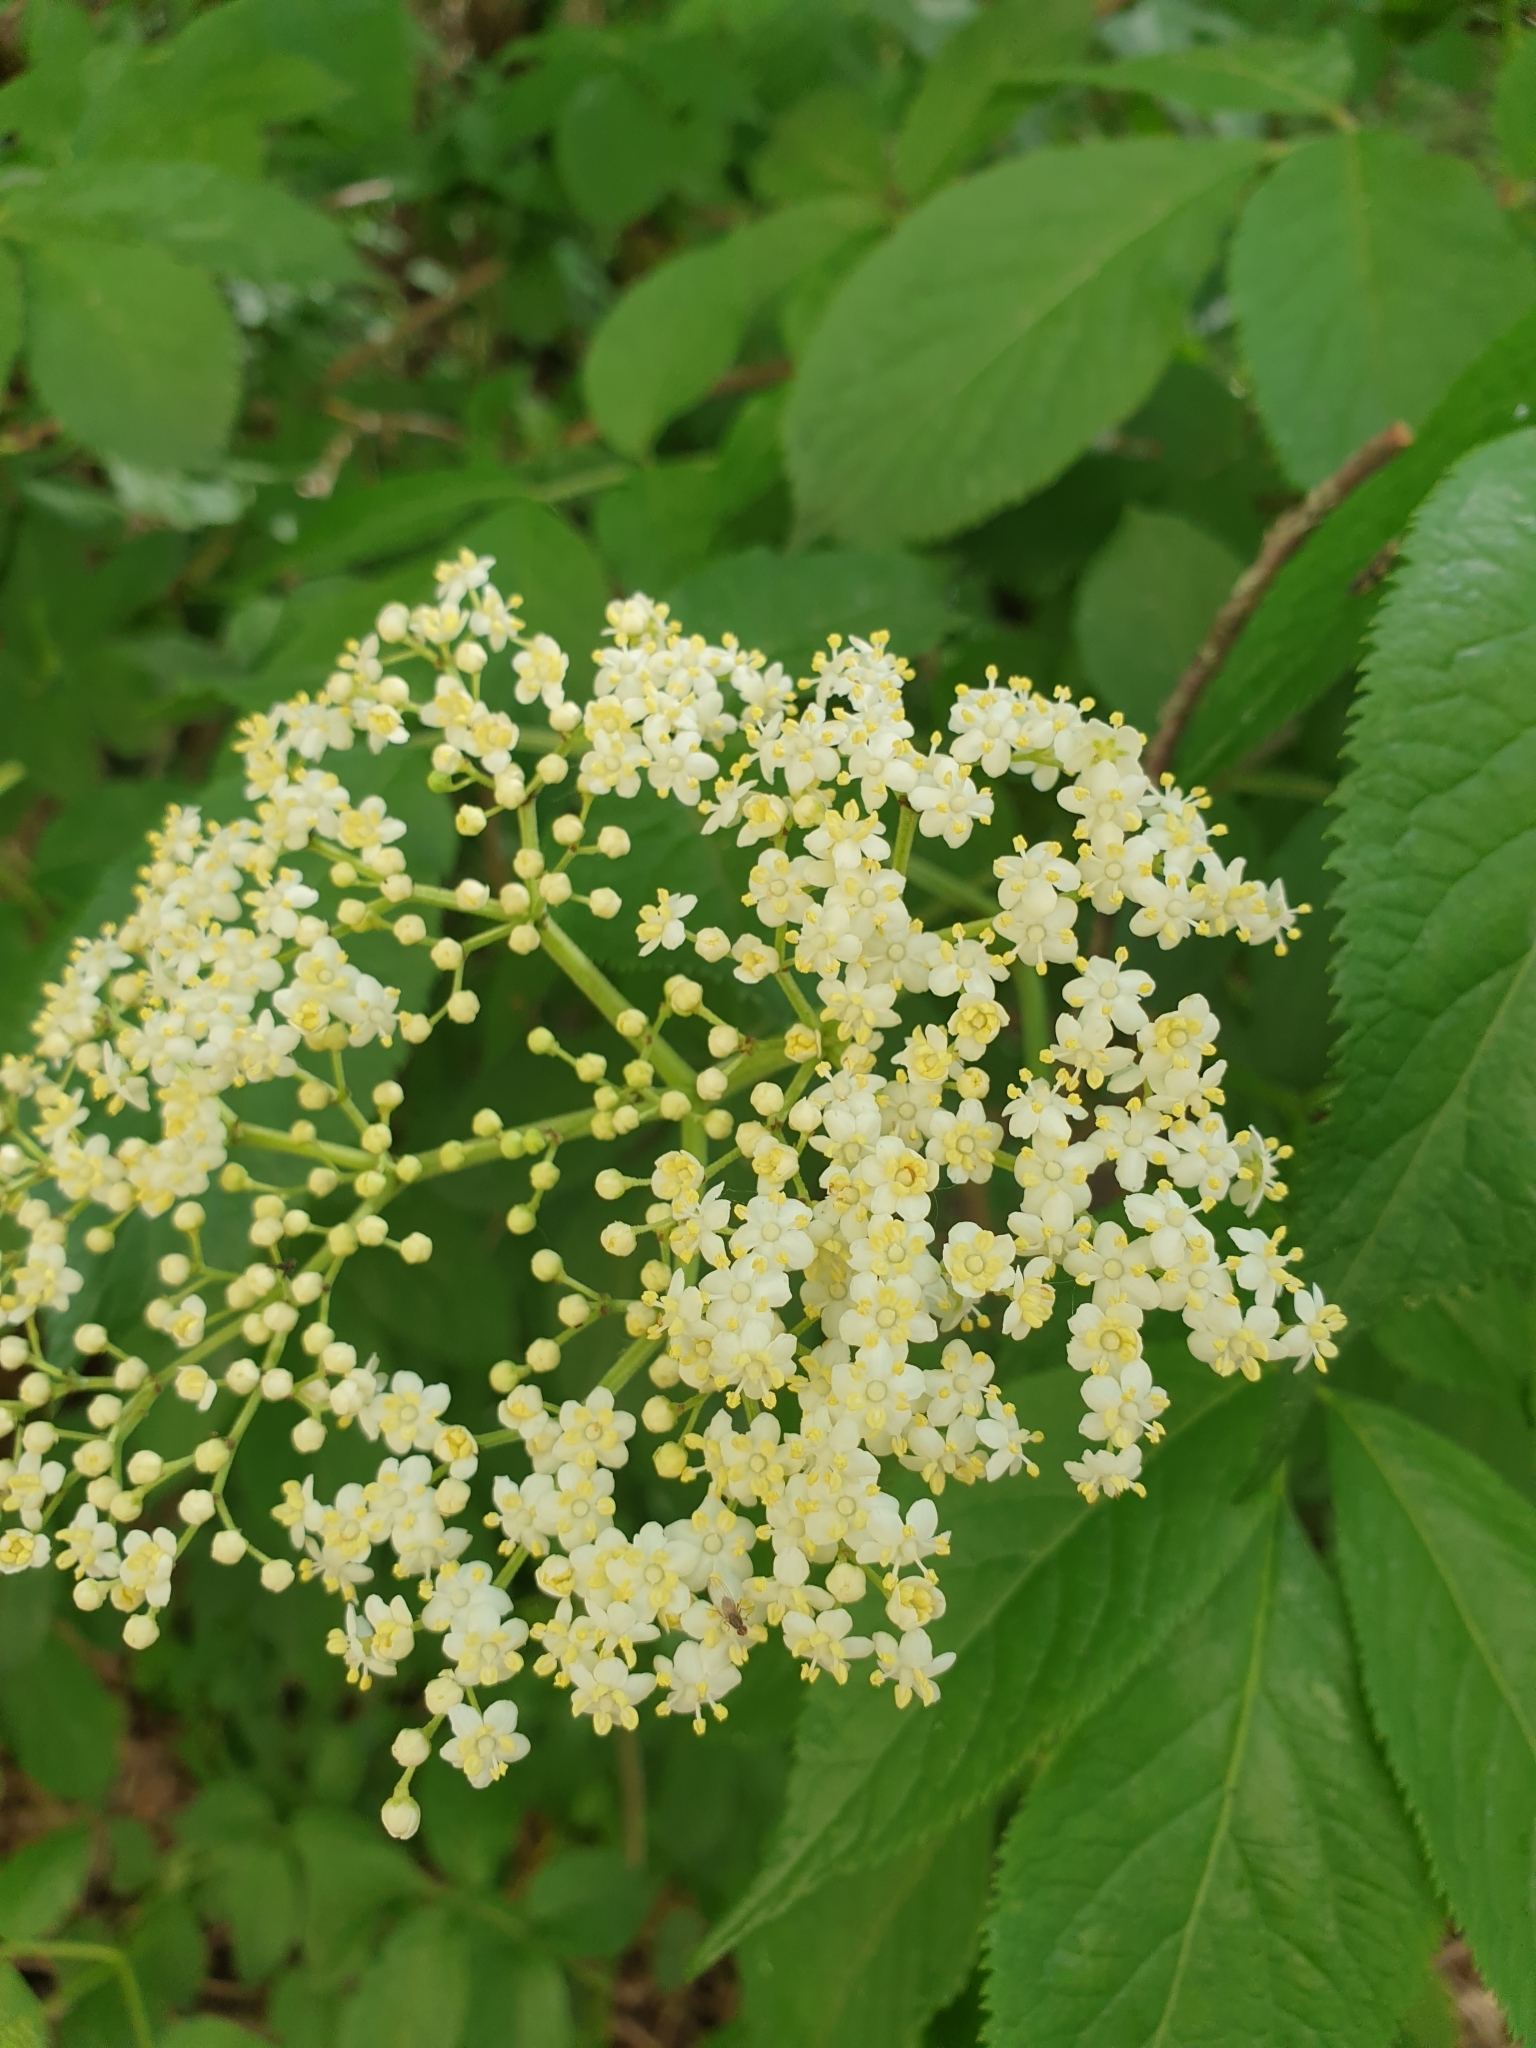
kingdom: Plantae
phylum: Tracheophyta
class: Magnoliopsida
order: Dipsacales
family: Viburnaceae
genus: Sambucus
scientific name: Sambucus nigra
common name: Elder
